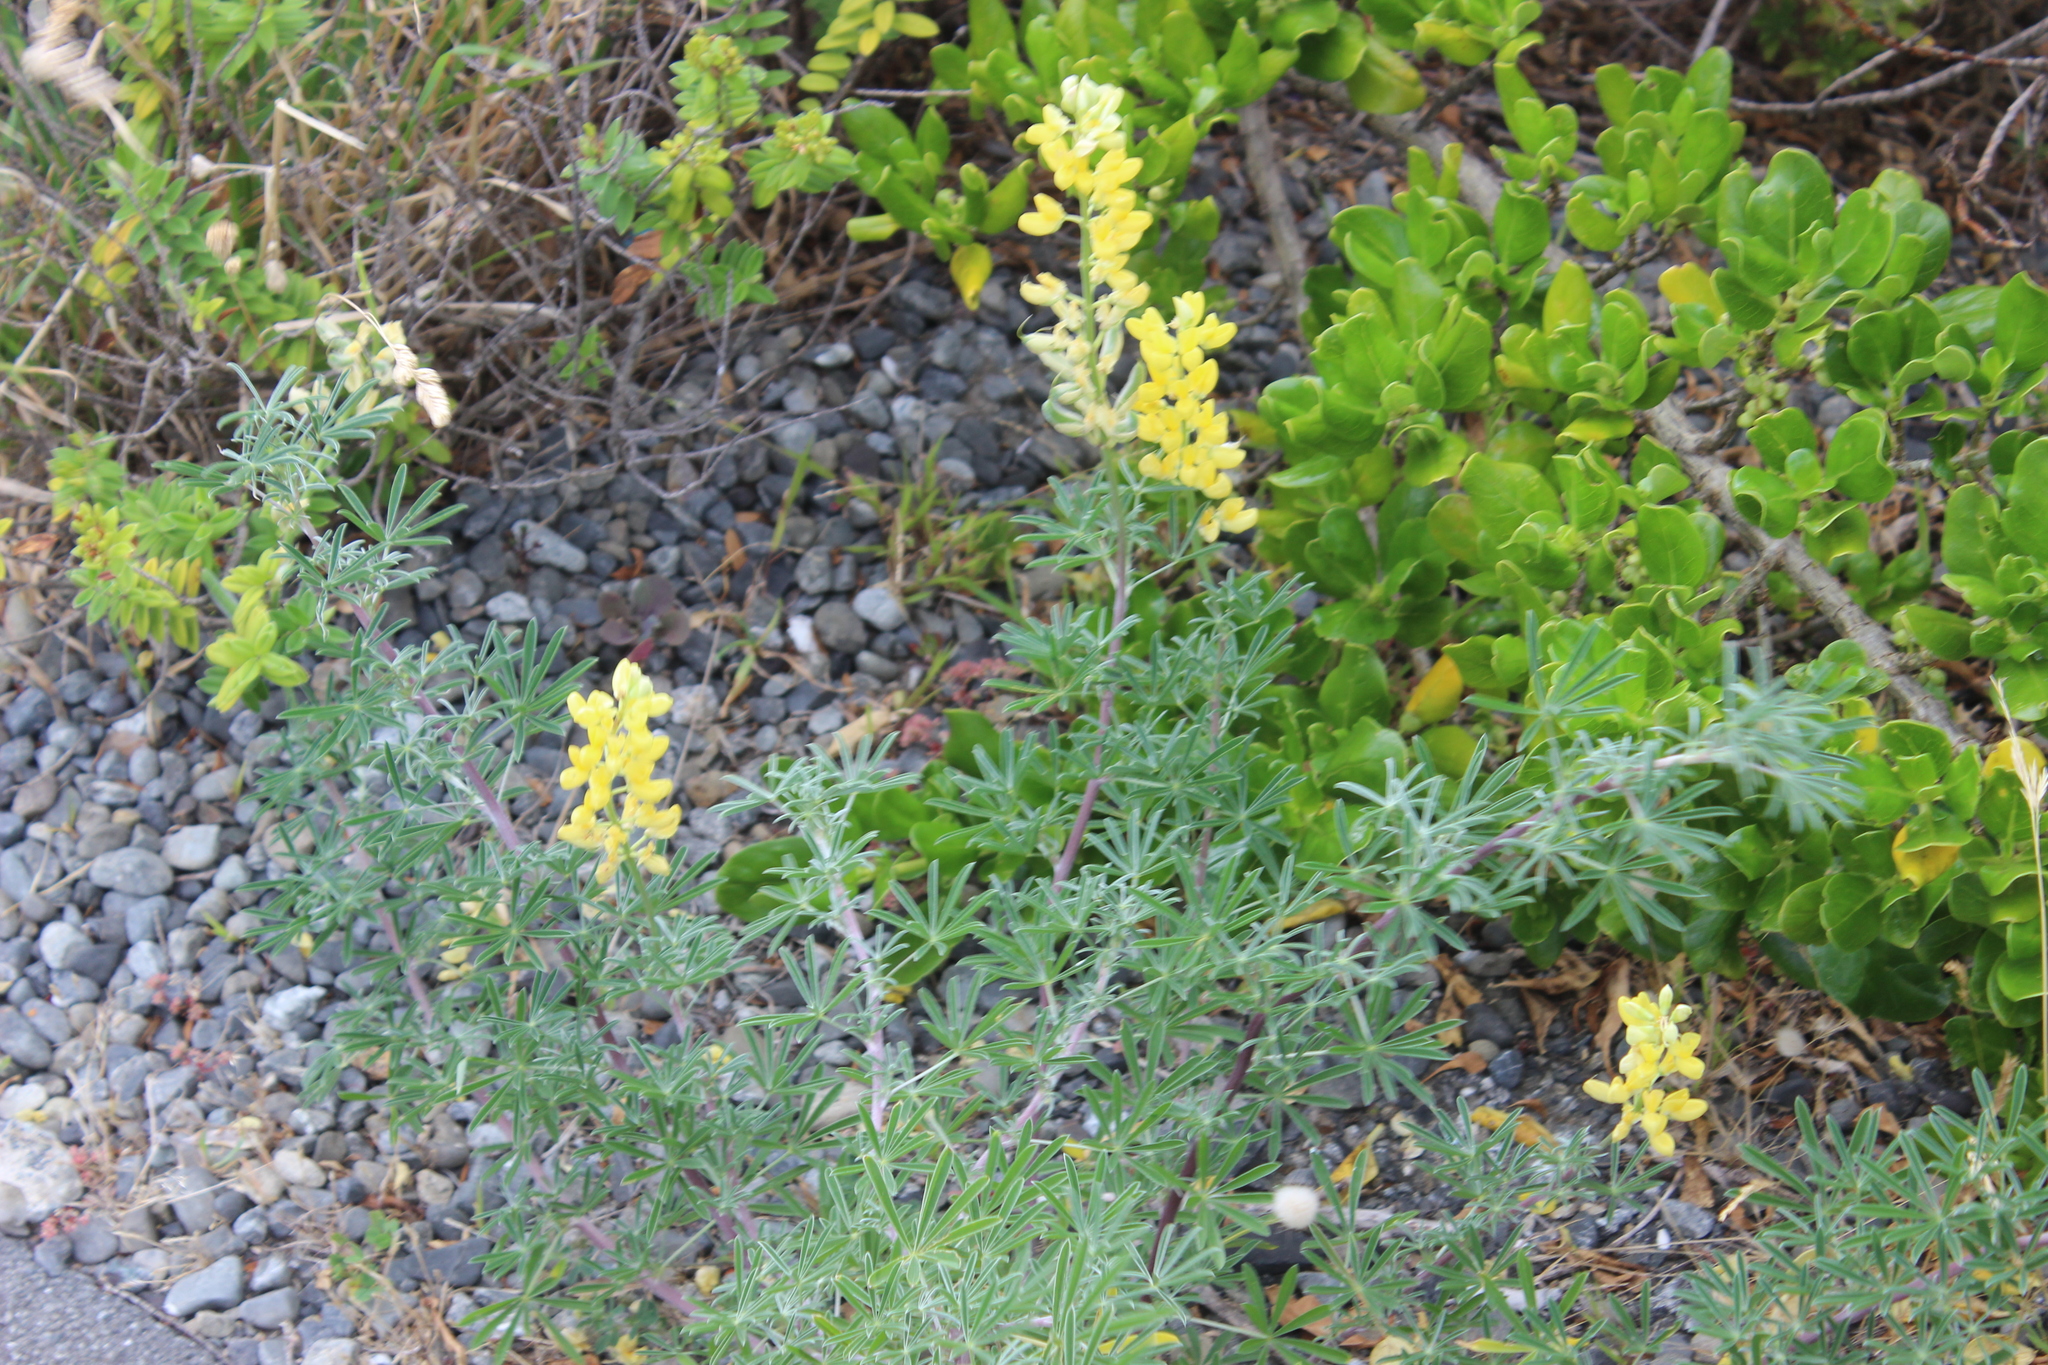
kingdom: Plantae
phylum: Tracheophyta
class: Magnoliopsida
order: Fabales
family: Fabaceae
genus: Lupinus
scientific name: Lupinus arboreus
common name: Yellow bush lupine
